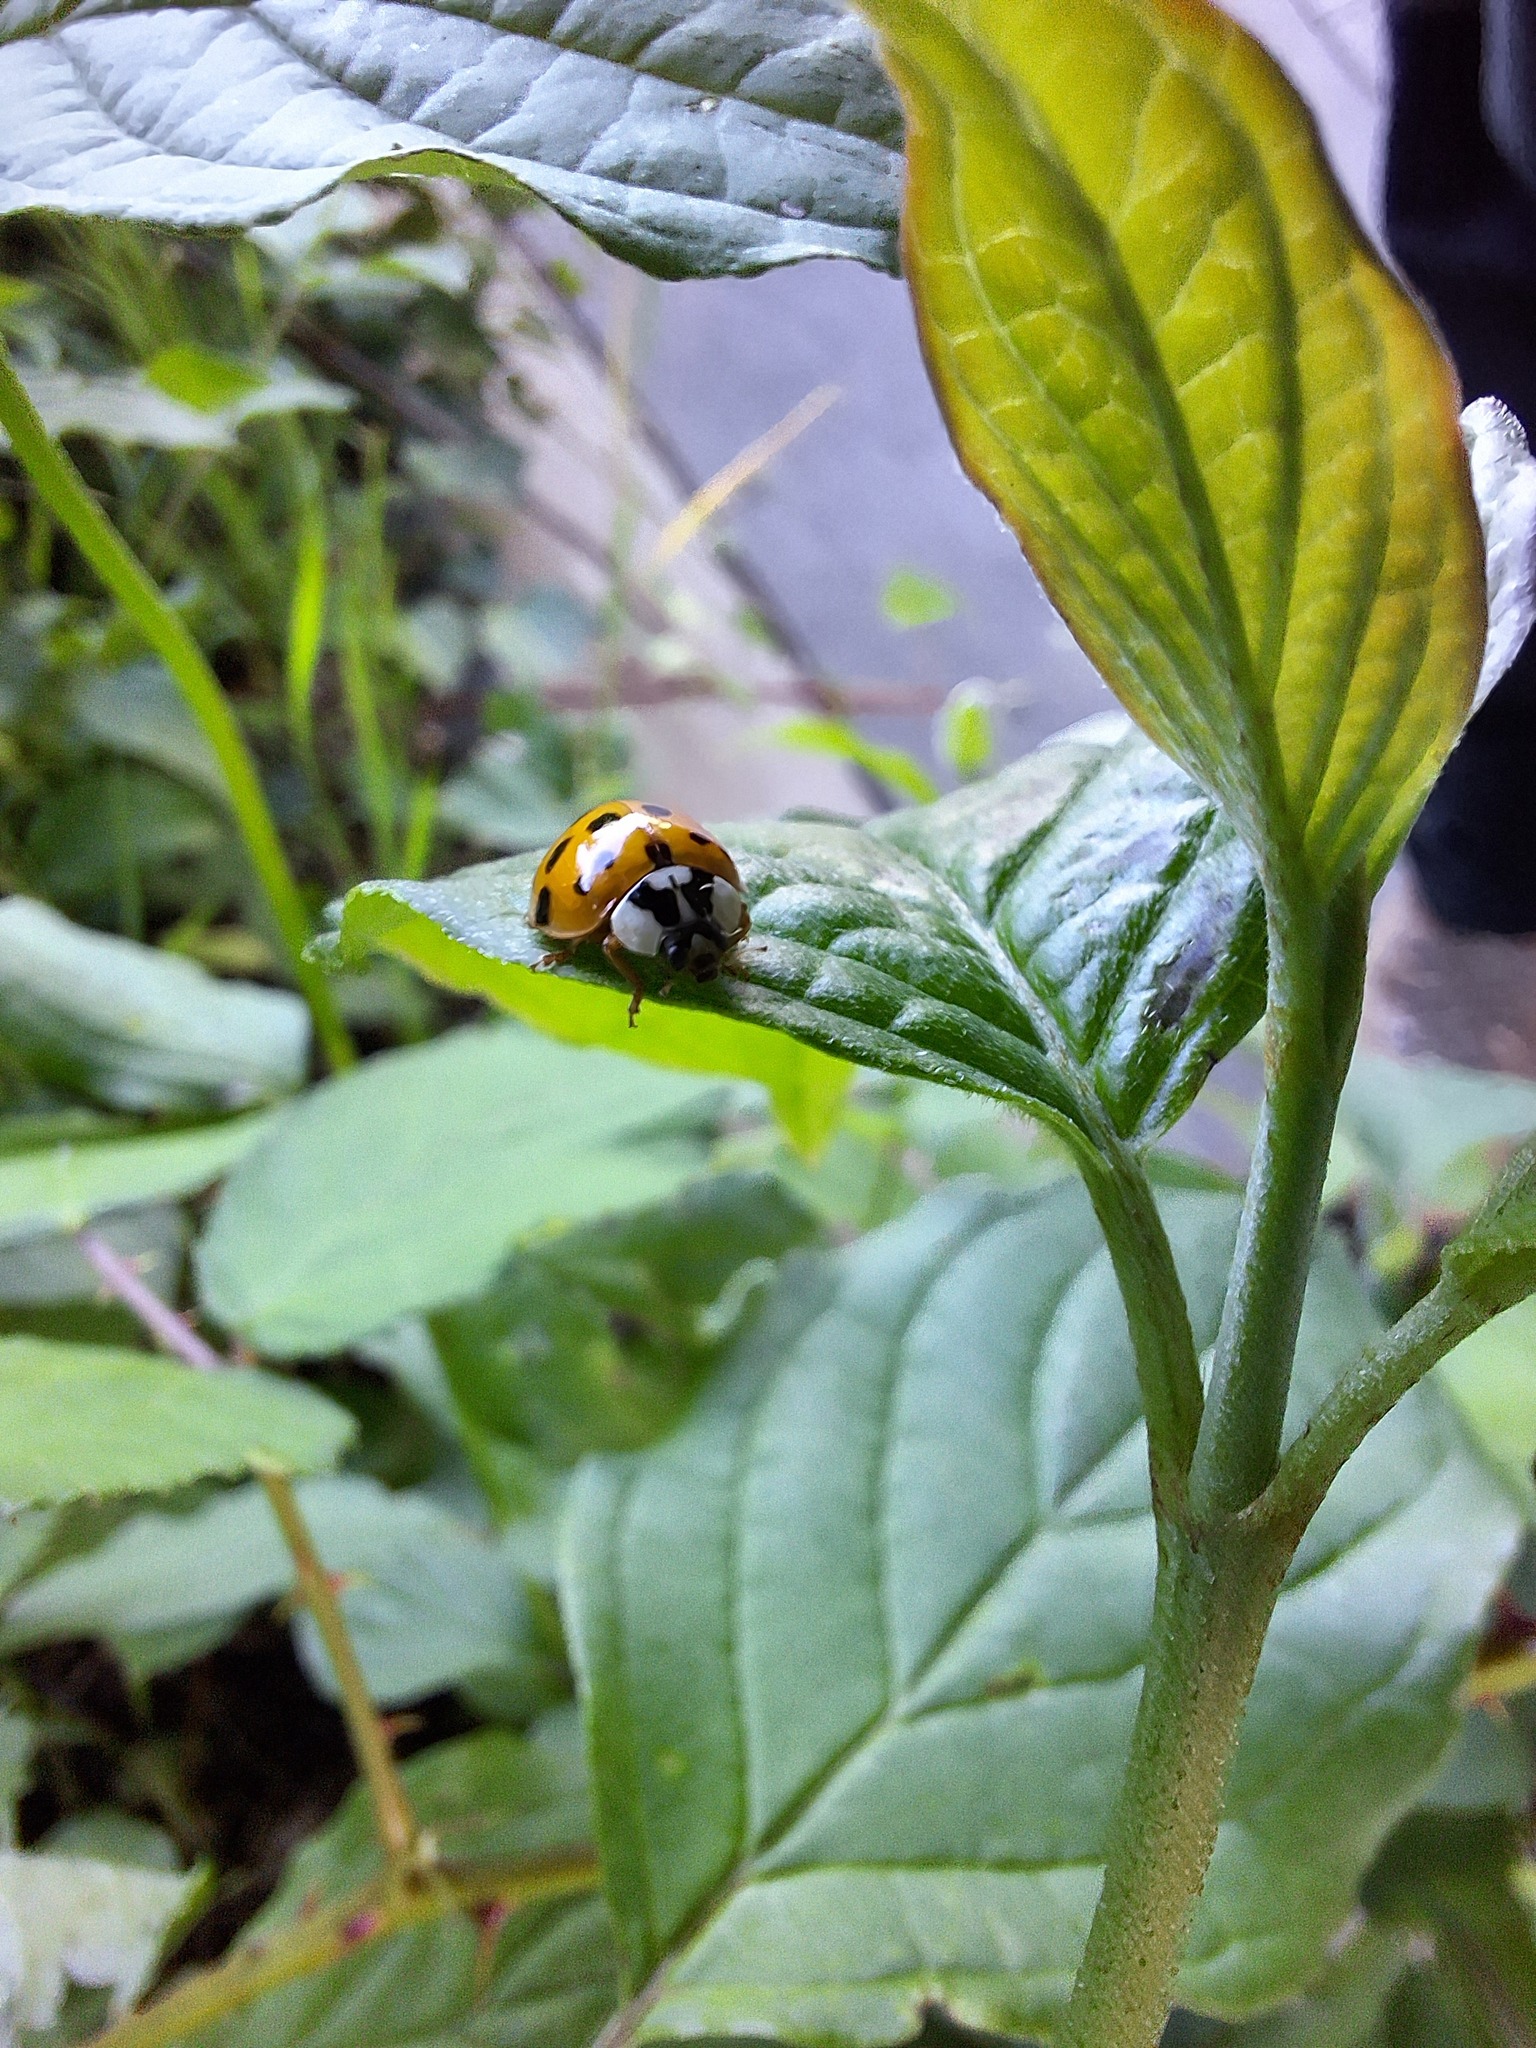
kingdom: Animalia
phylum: Arthropoda
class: Insecta
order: Coleoptera
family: Coccinellidae
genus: Harmonia
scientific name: Harmonia axyridis
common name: Harlequin ladybird
